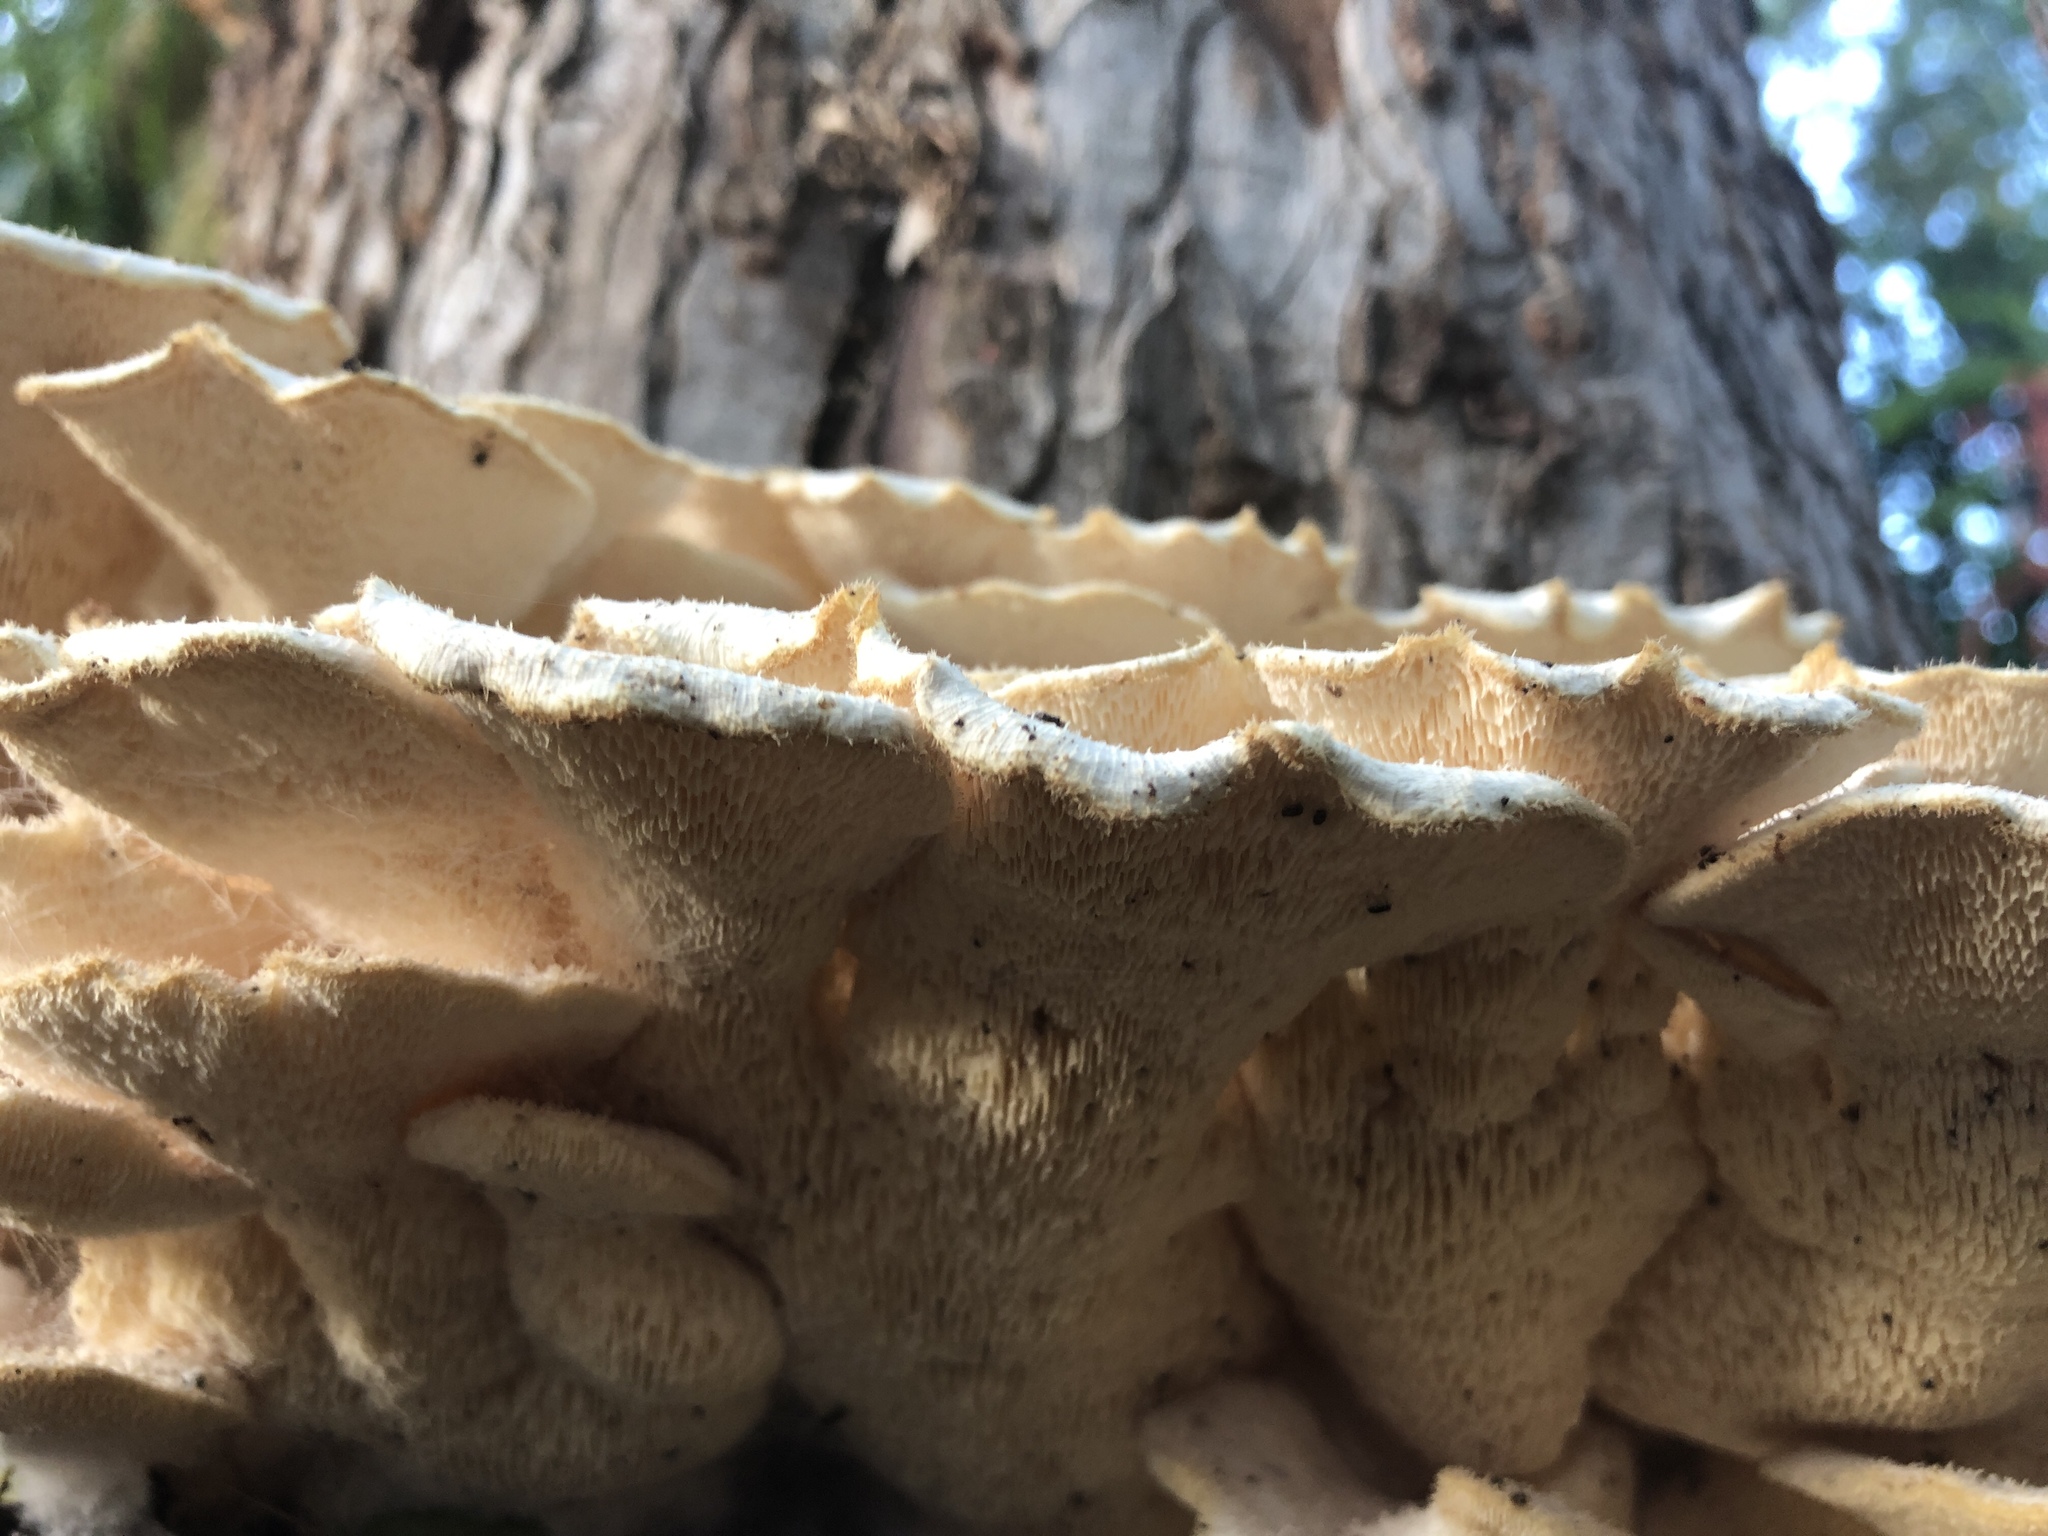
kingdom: Fungi
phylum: Basidiomycota
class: Agaricomycetes
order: Polyporales
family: Polyporaceae
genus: Favolus
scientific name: Favolus tenuiculus
